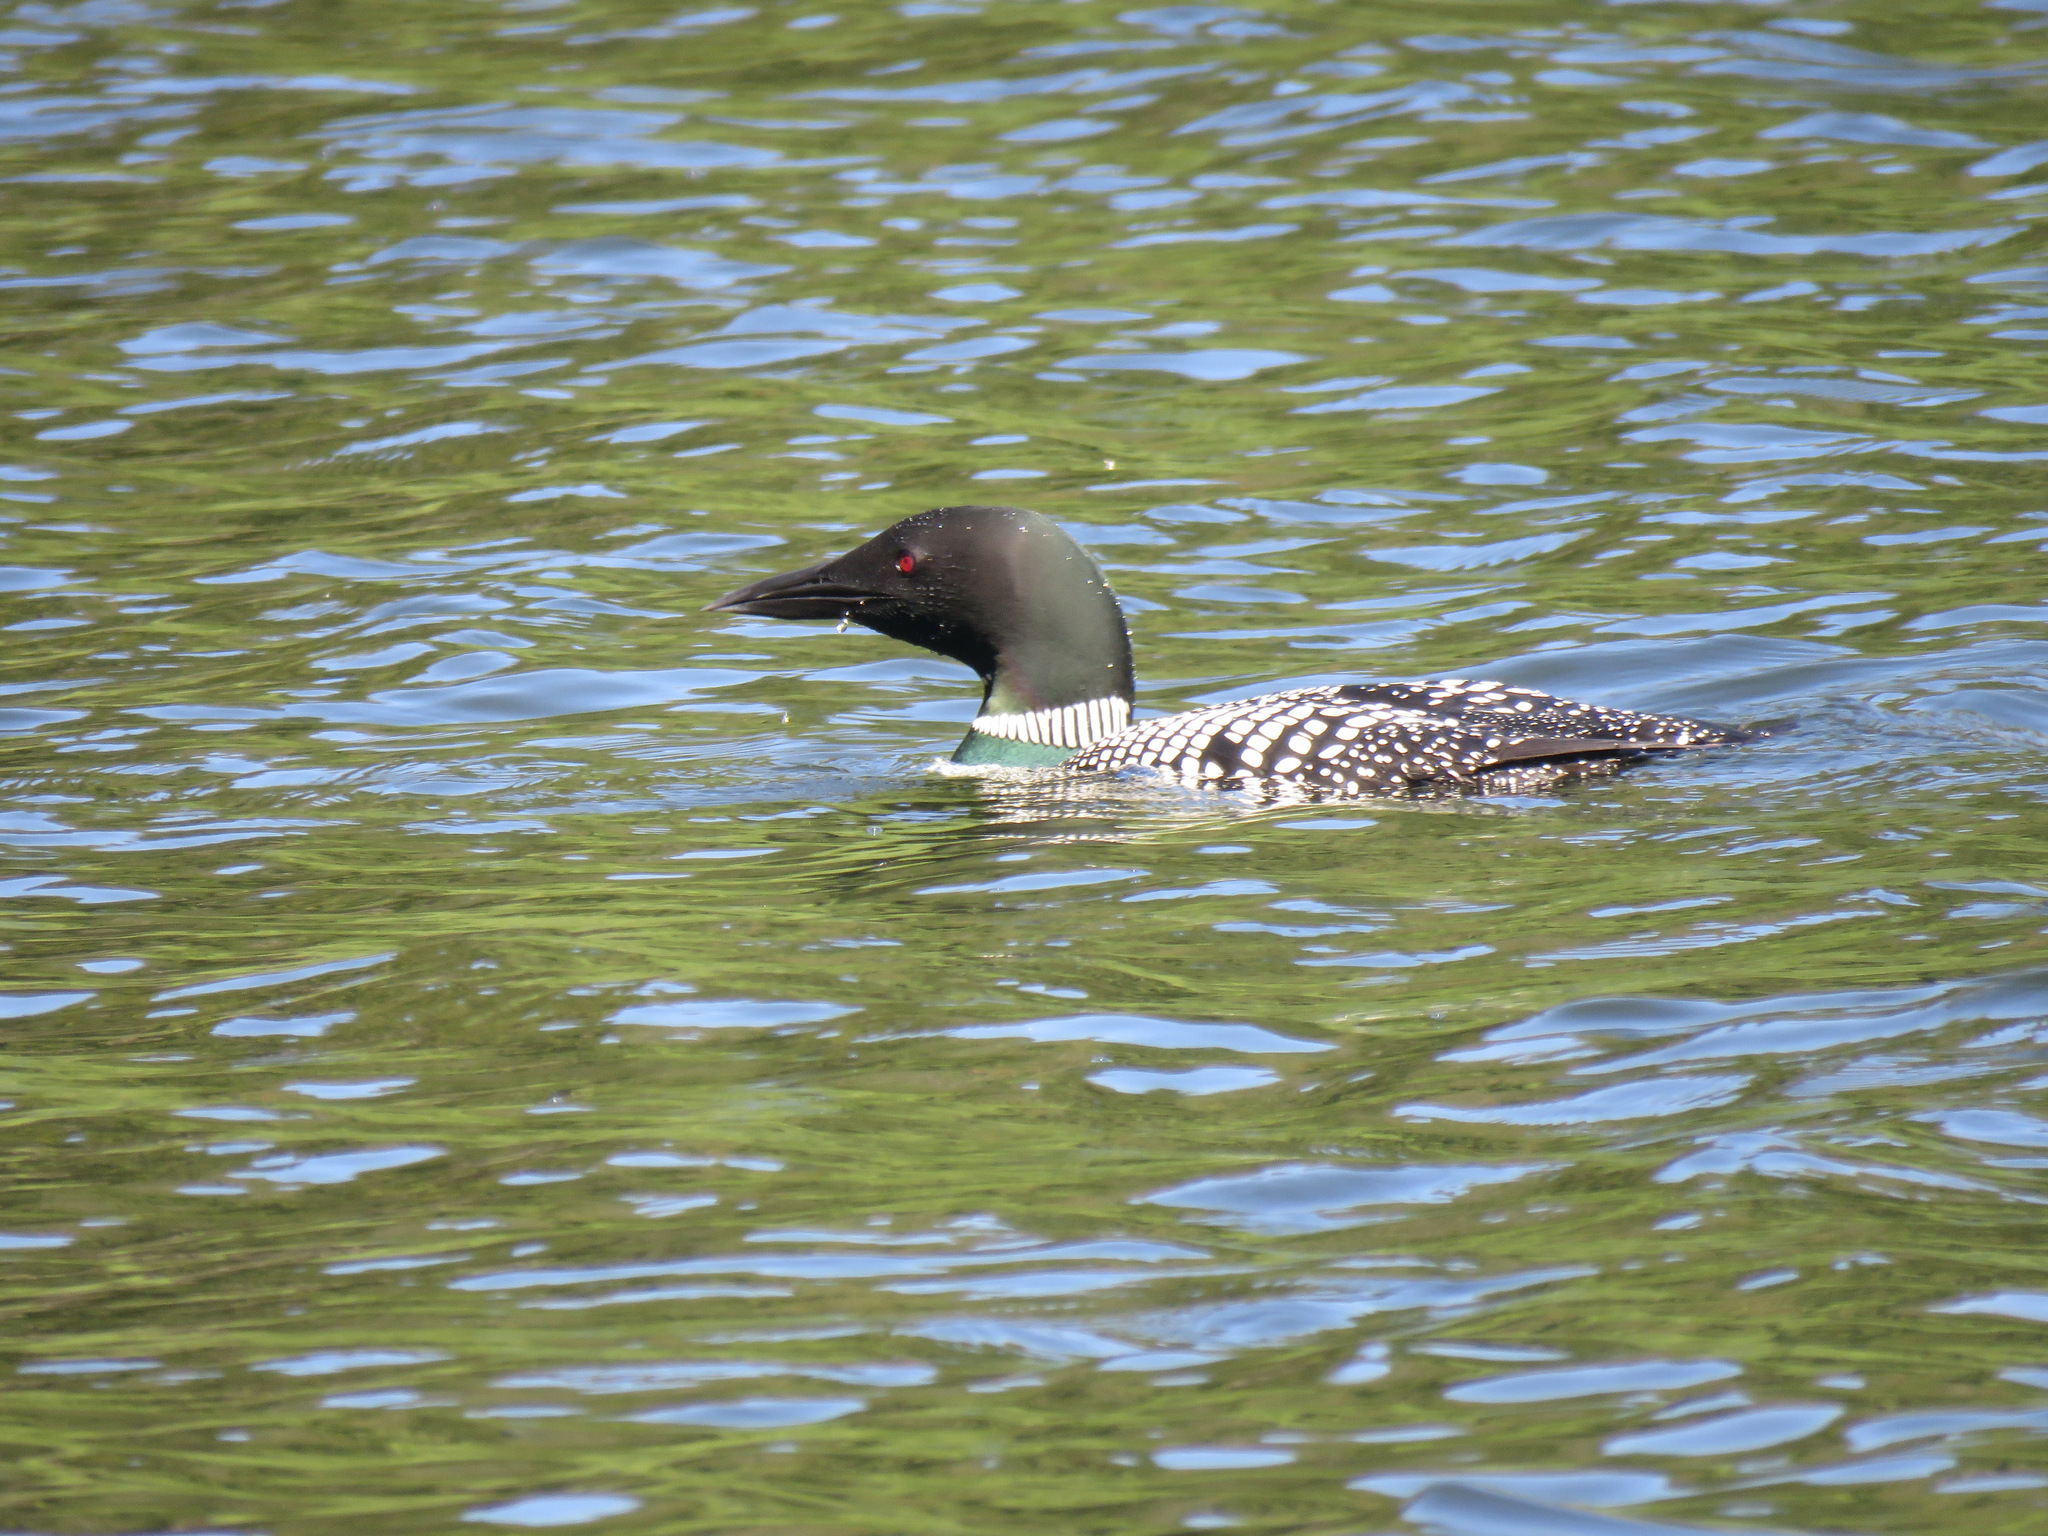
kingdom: Animalia
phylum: Chordata
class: Aves
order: Gaviiformes
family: Gaviidae
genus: Gavia
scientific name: Gavia immer
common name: Common loon
